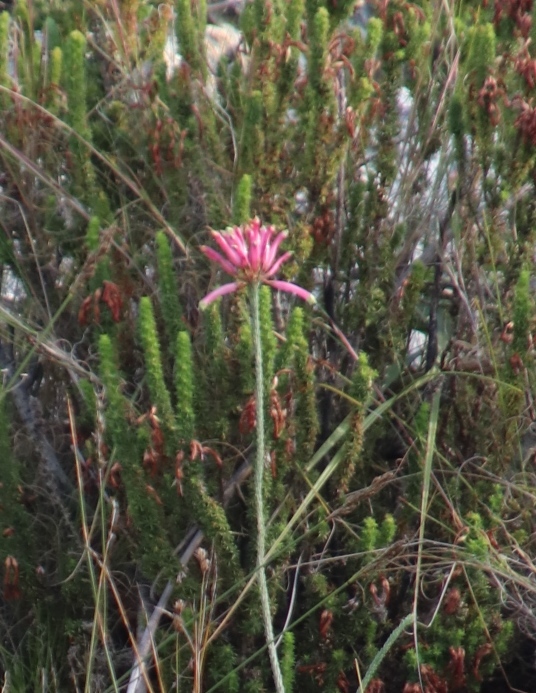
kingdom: Plantae
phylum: Tracheophyta
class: Magnoliopsida
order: Ericales
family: Ericaceae
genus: Erica
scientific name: Erica fascicularis
